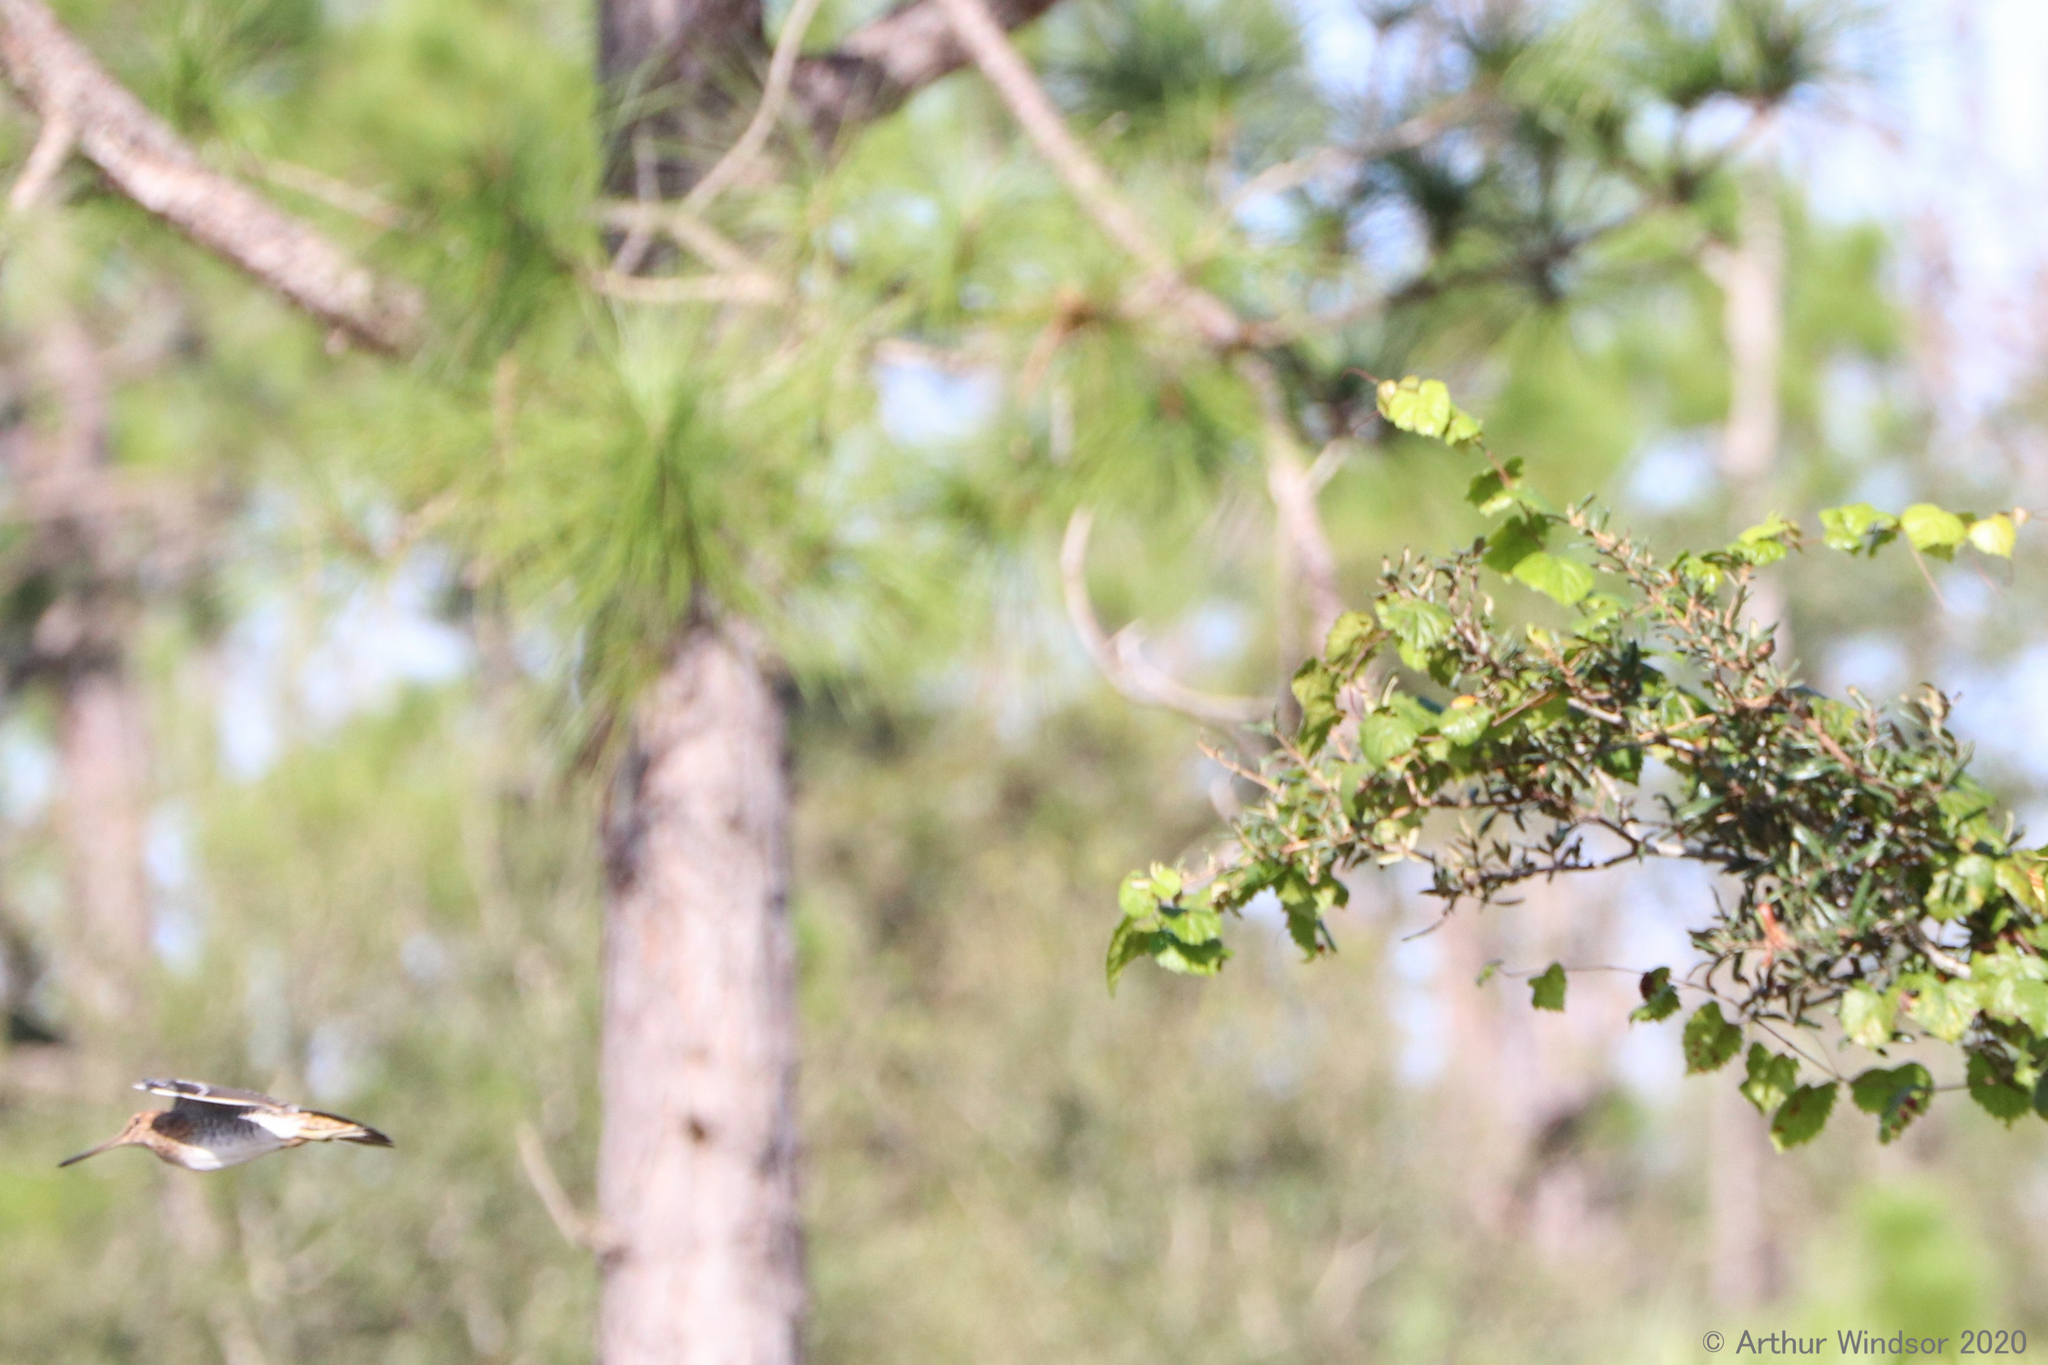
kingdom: Animalia
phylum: Chordata
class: Aves
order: Charadriiformes
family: Scolopacidae
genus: Gallinago
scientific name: Gallinago delicata
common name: Wilson's snipe
